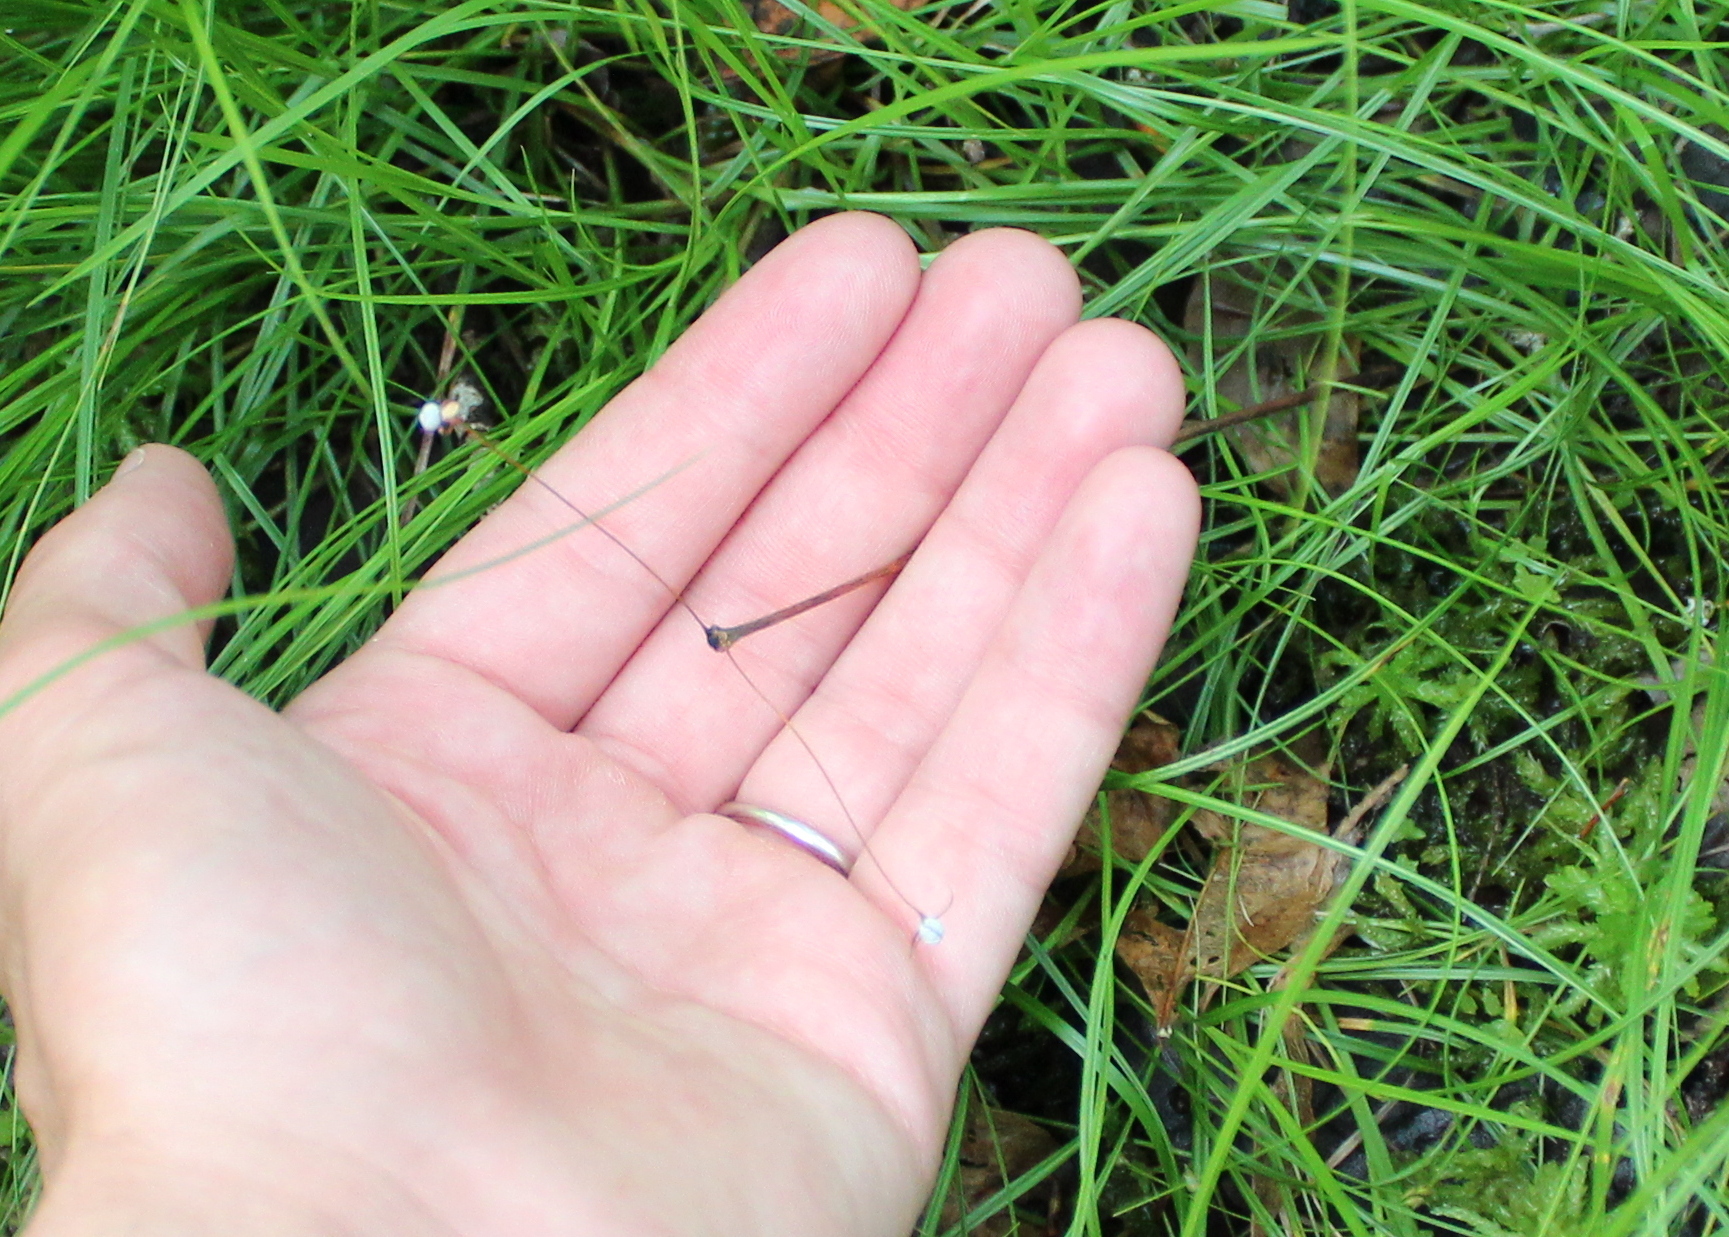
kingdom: Plantae
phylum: Tracheophyta
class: Magnoliopsida
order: Ericales
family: Primulaceae
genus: Lysimachia
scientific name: Lysimachia borealis
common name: American starflower
